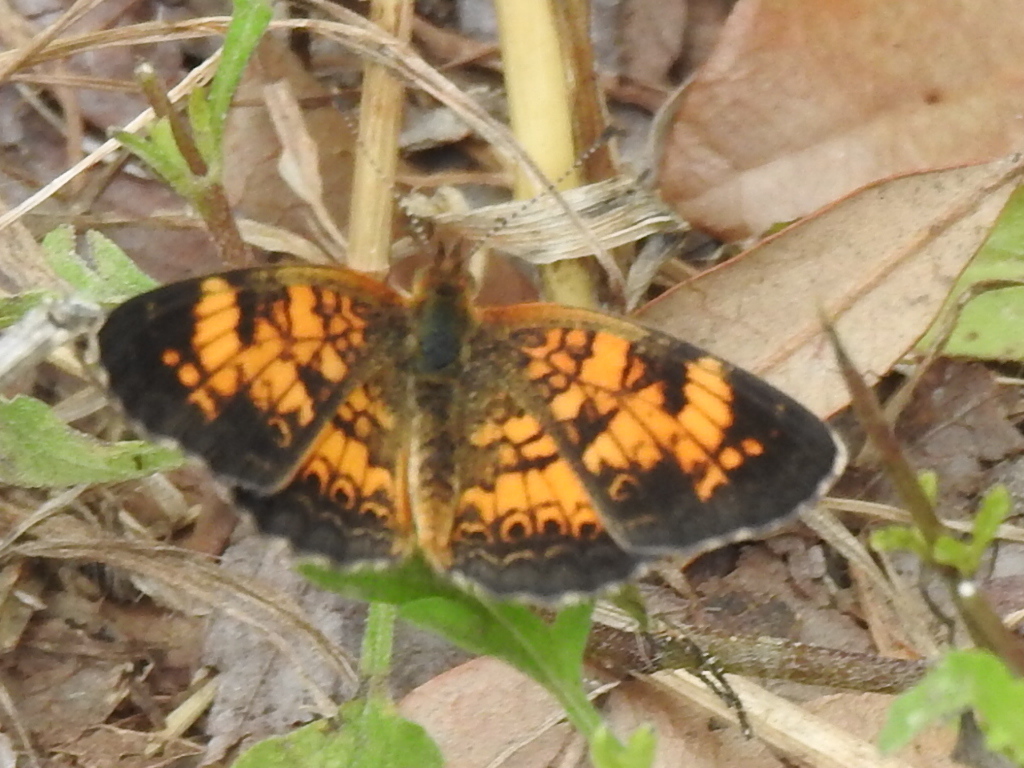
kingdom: Animalia
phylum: Arthropoda
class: Insecta
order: Lepidoptera
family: Nymphalidae
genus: Phyciodes
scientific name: Phyciodes tharos
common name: Pearl crescent
